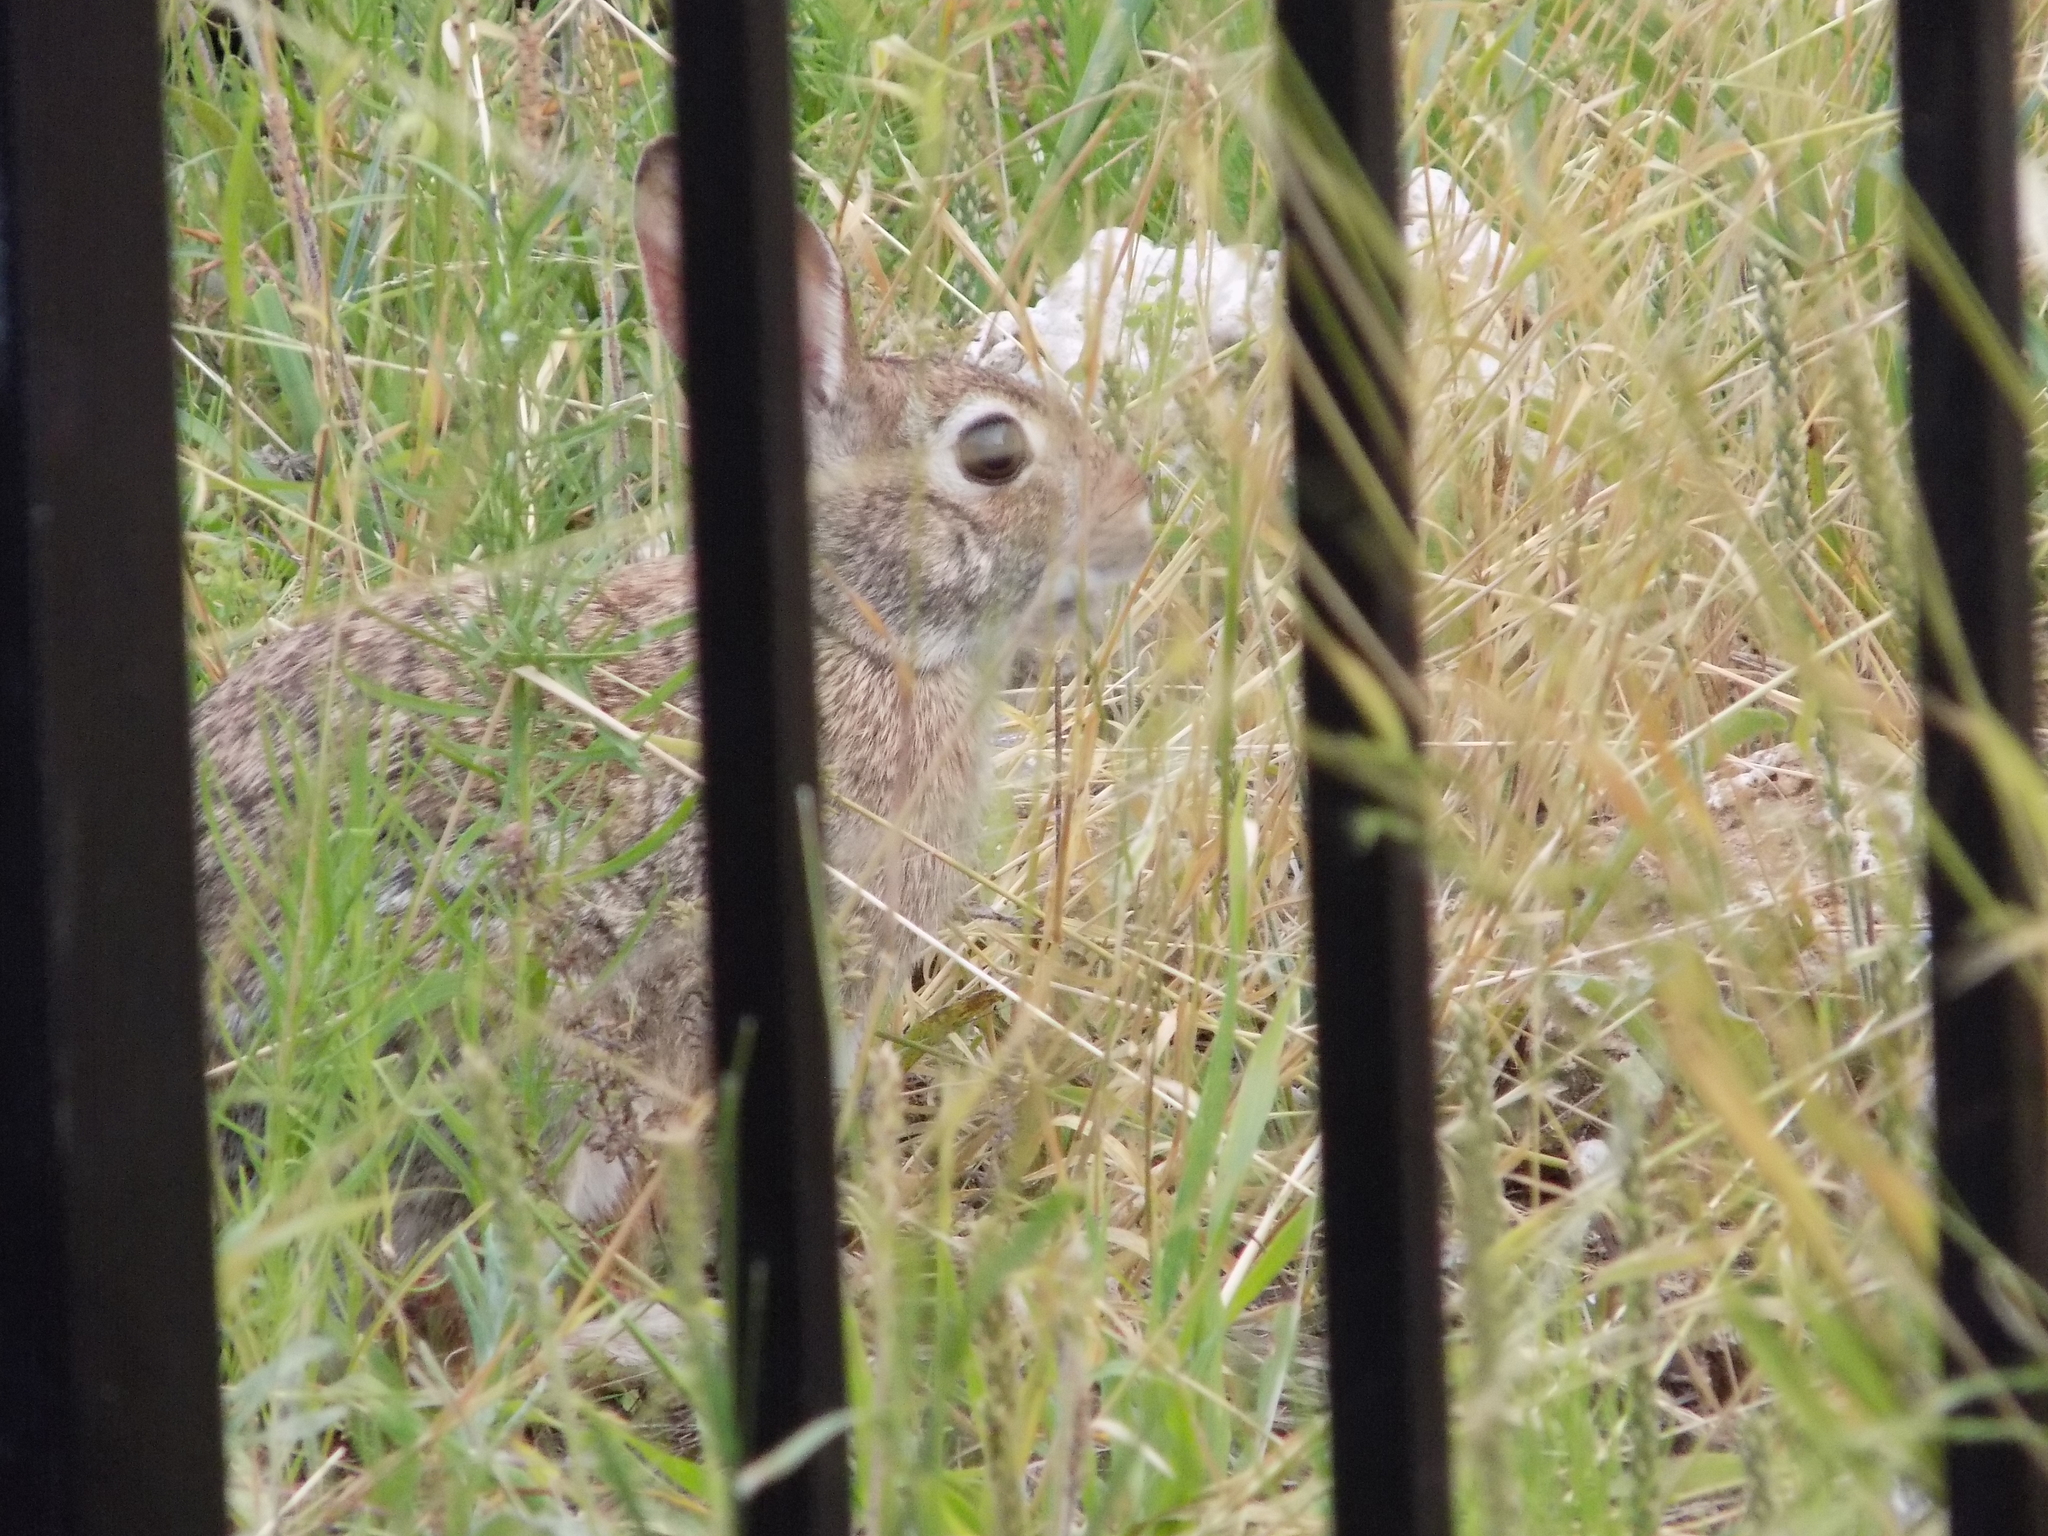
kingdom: Animalia
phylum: Chordata
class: Mammalia
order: Lagomorpha
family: Leporidae
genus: Sylvilagus
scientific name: Sylvilagus floridanus
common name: Eastern cottontail
